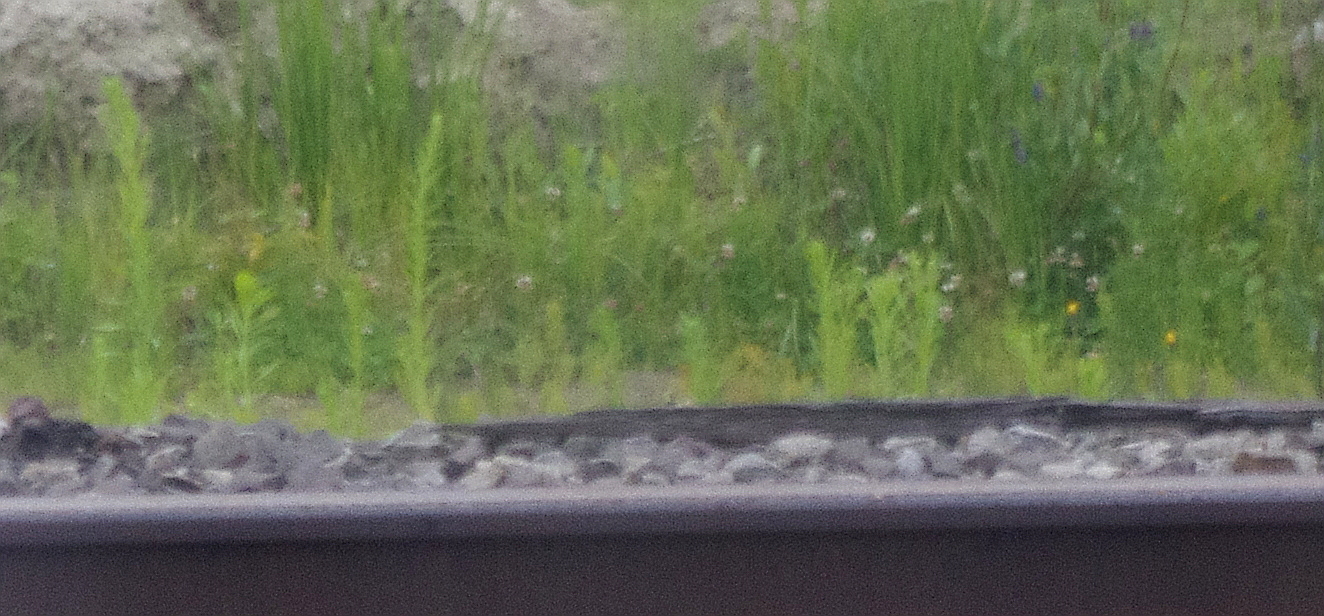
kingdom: Plantae
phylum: Tracheophyta
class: Magnoliopsida
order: Lamiales
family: Plantaginaceae
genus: Linaria
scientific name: Linaria vulgaris
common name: Butter and eggs
